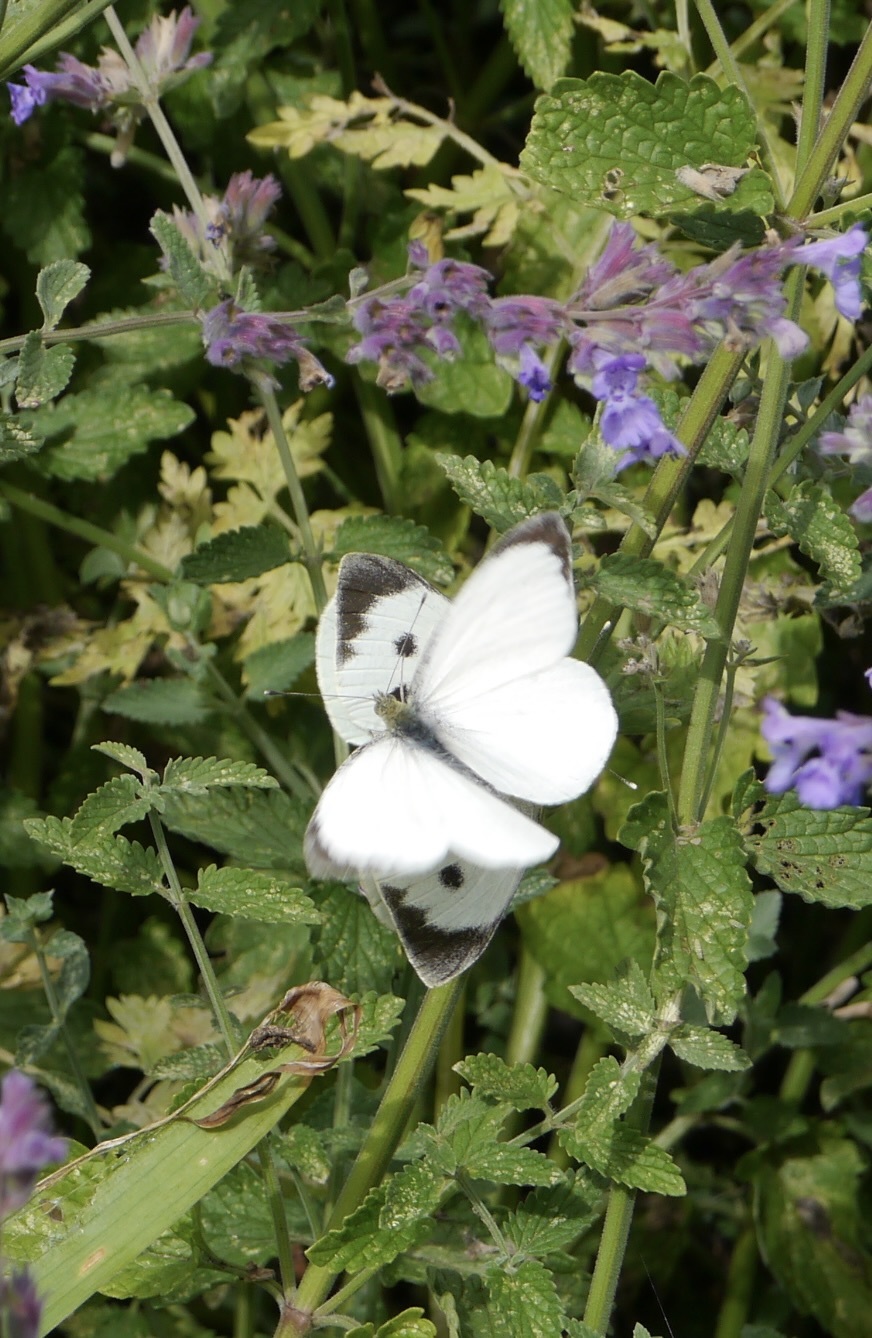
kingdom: Animalia
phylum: Arthropoda
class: Insecta
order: Lepidoptera
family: Pieridae
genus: Pieris
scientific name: Pieris brassicae
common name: Large white
